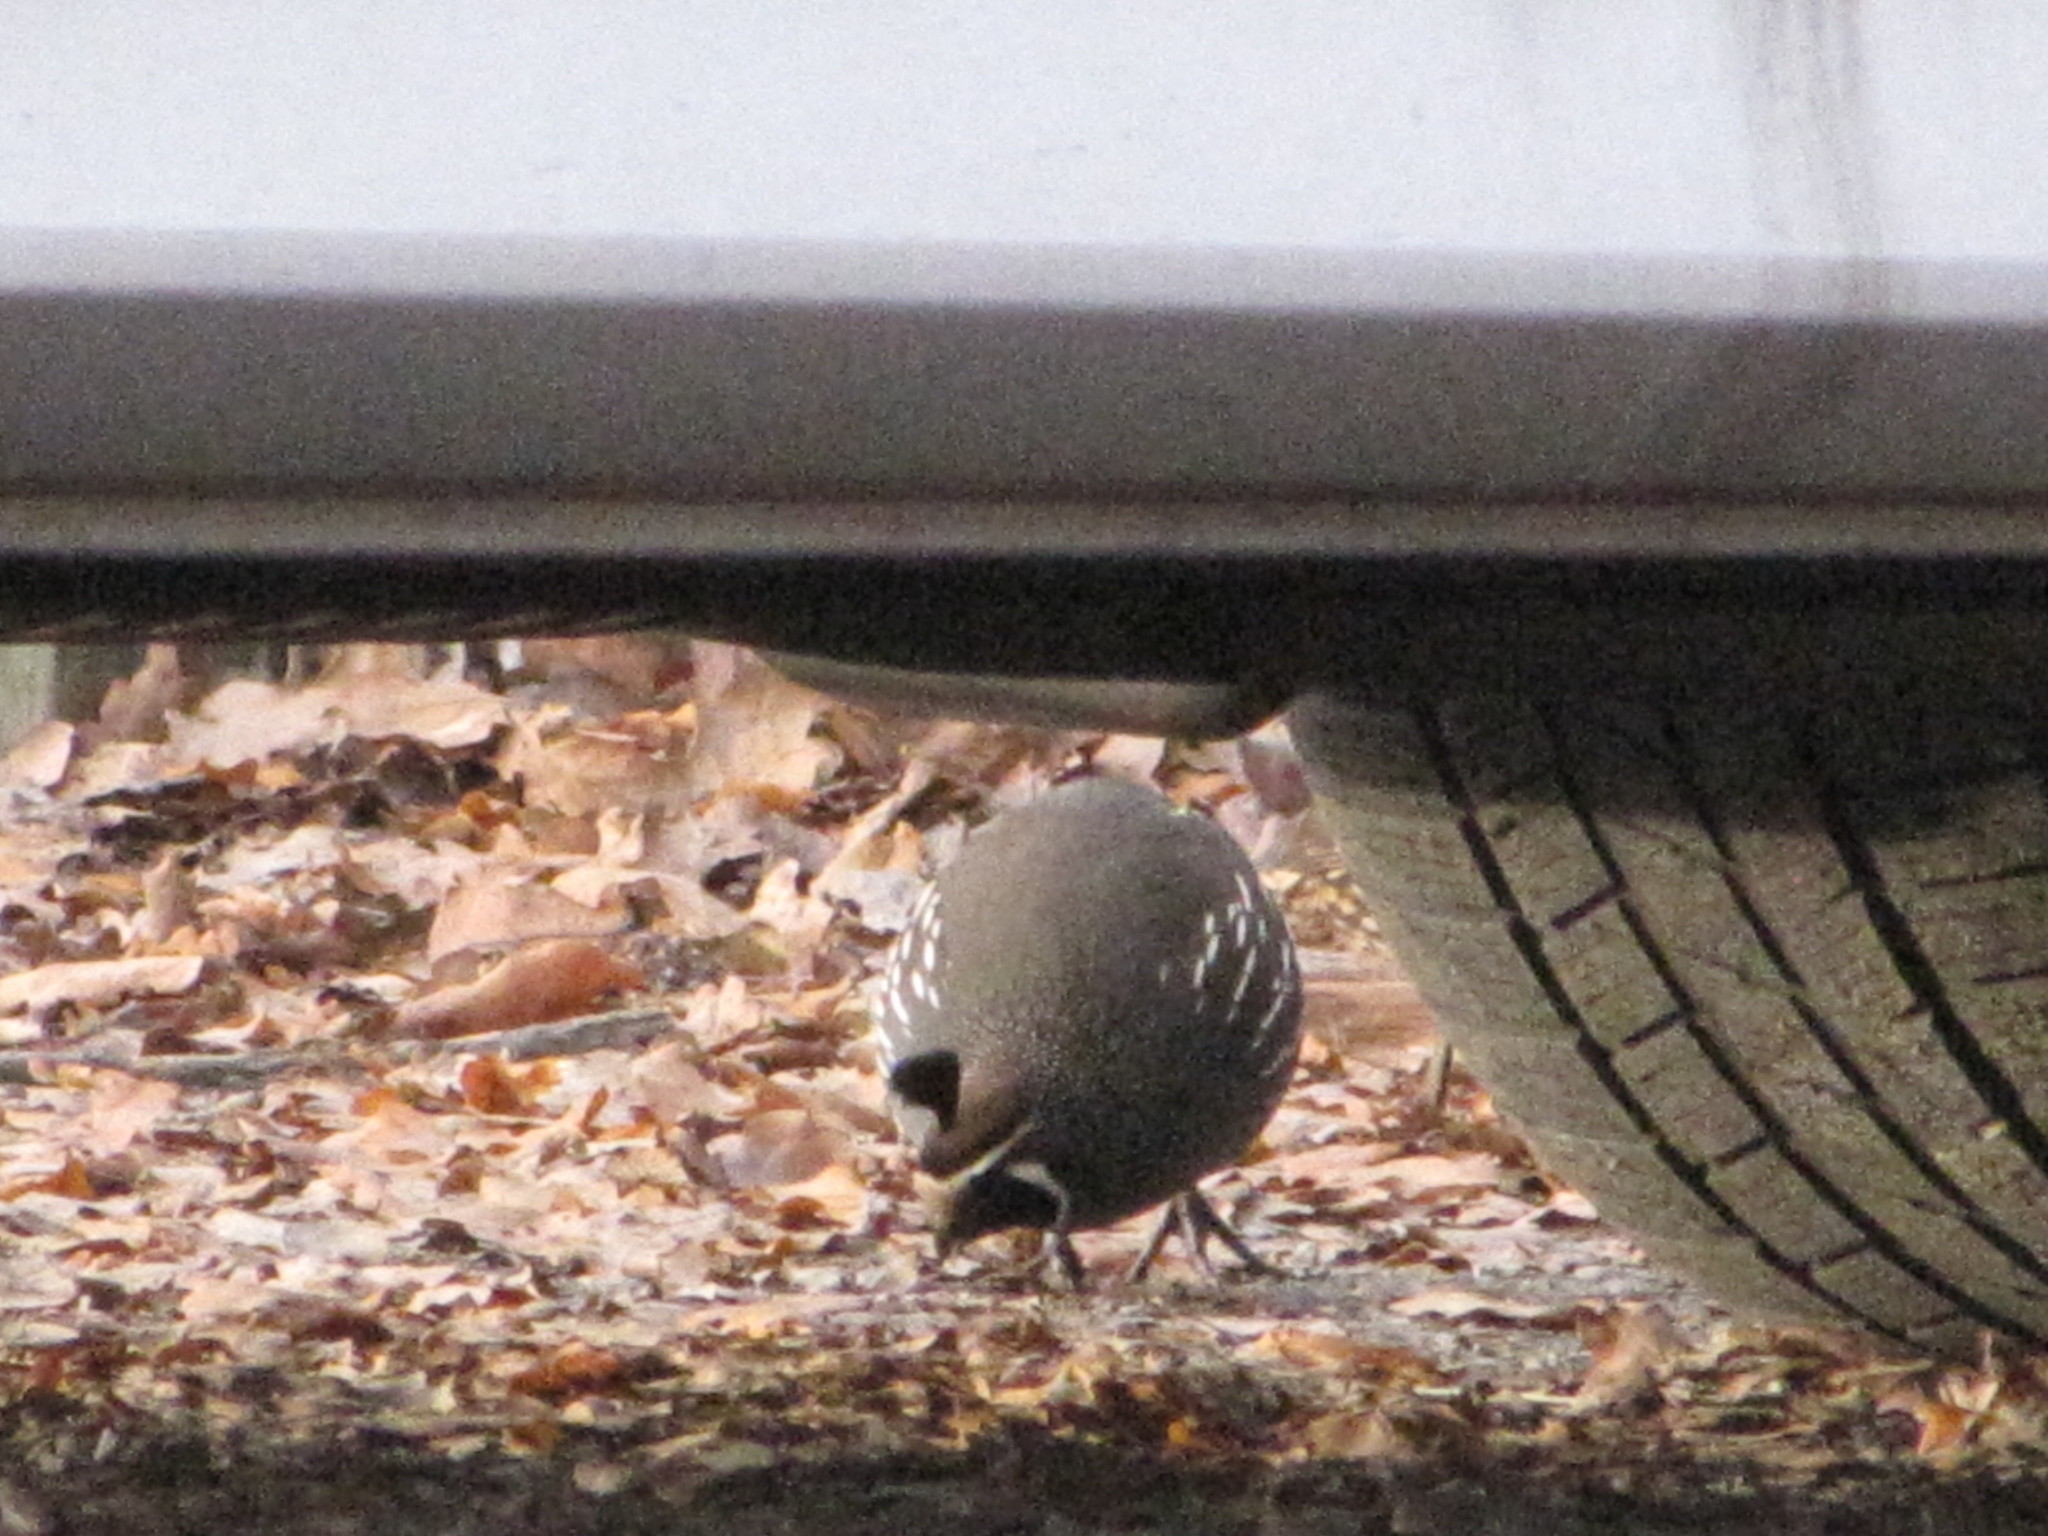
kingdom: Animalia
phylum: Chordata
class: Aves
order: Galliformes
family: Odontophoridae
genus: Callipepla
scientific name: Callipepla californica
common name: California quail
